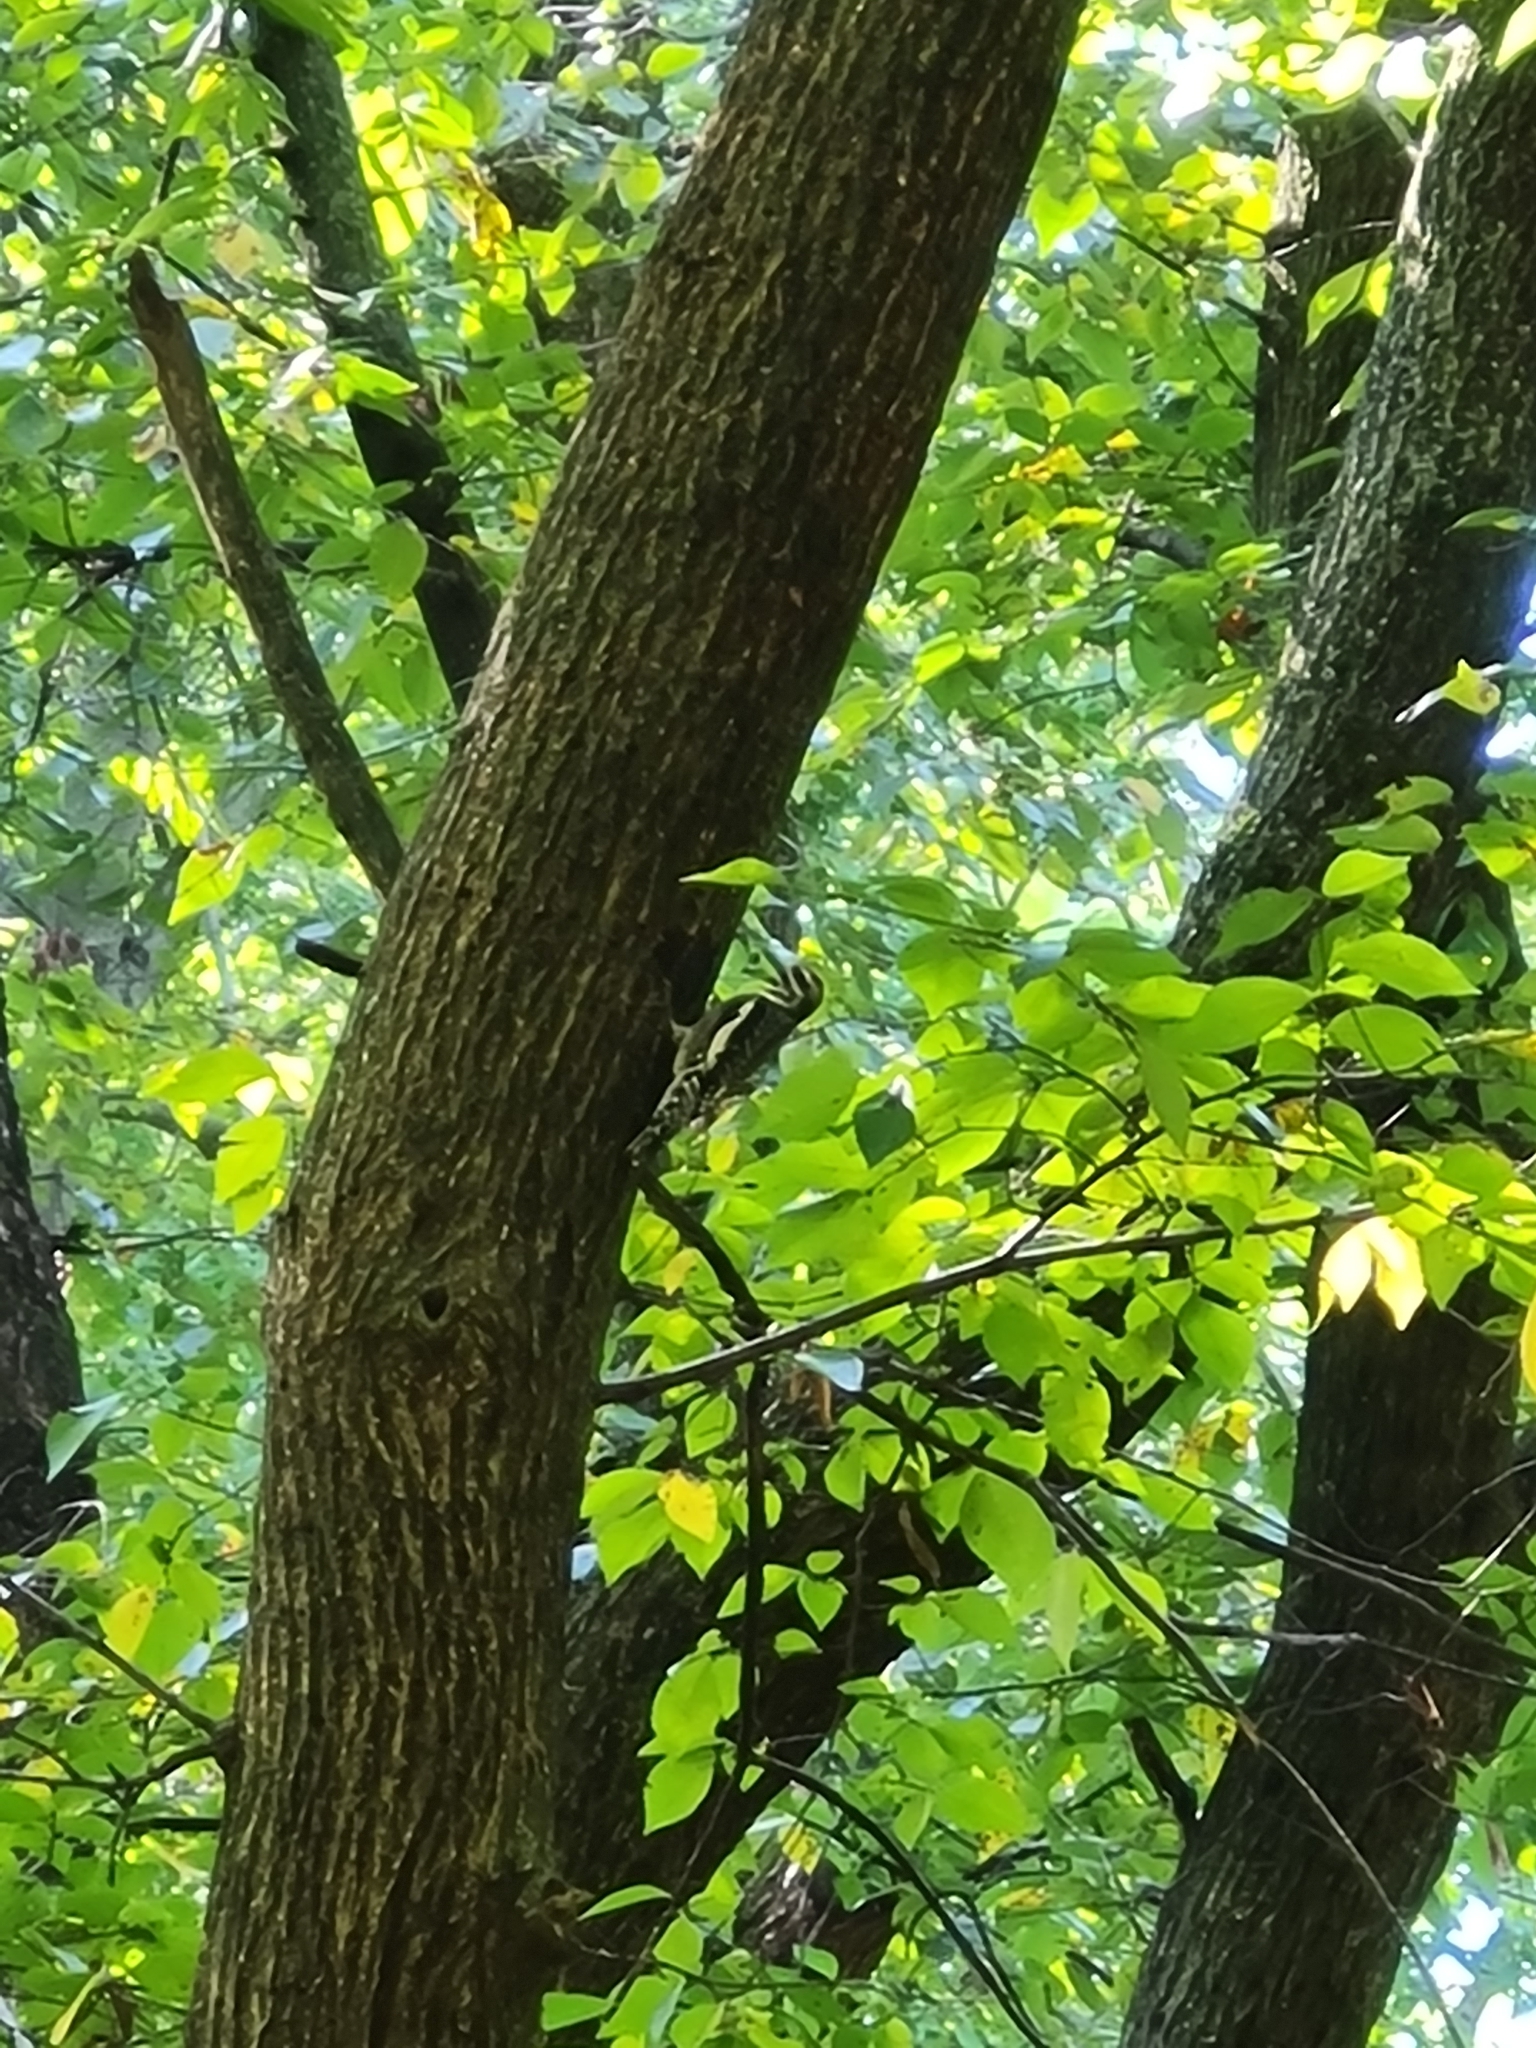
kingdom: Animalia
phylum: Chordata
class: Aves
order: Piciformes
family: Picidae
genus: Sphyrapicus
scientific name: Sphyrapicus varius
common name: Yellow-bellied sapsucker
